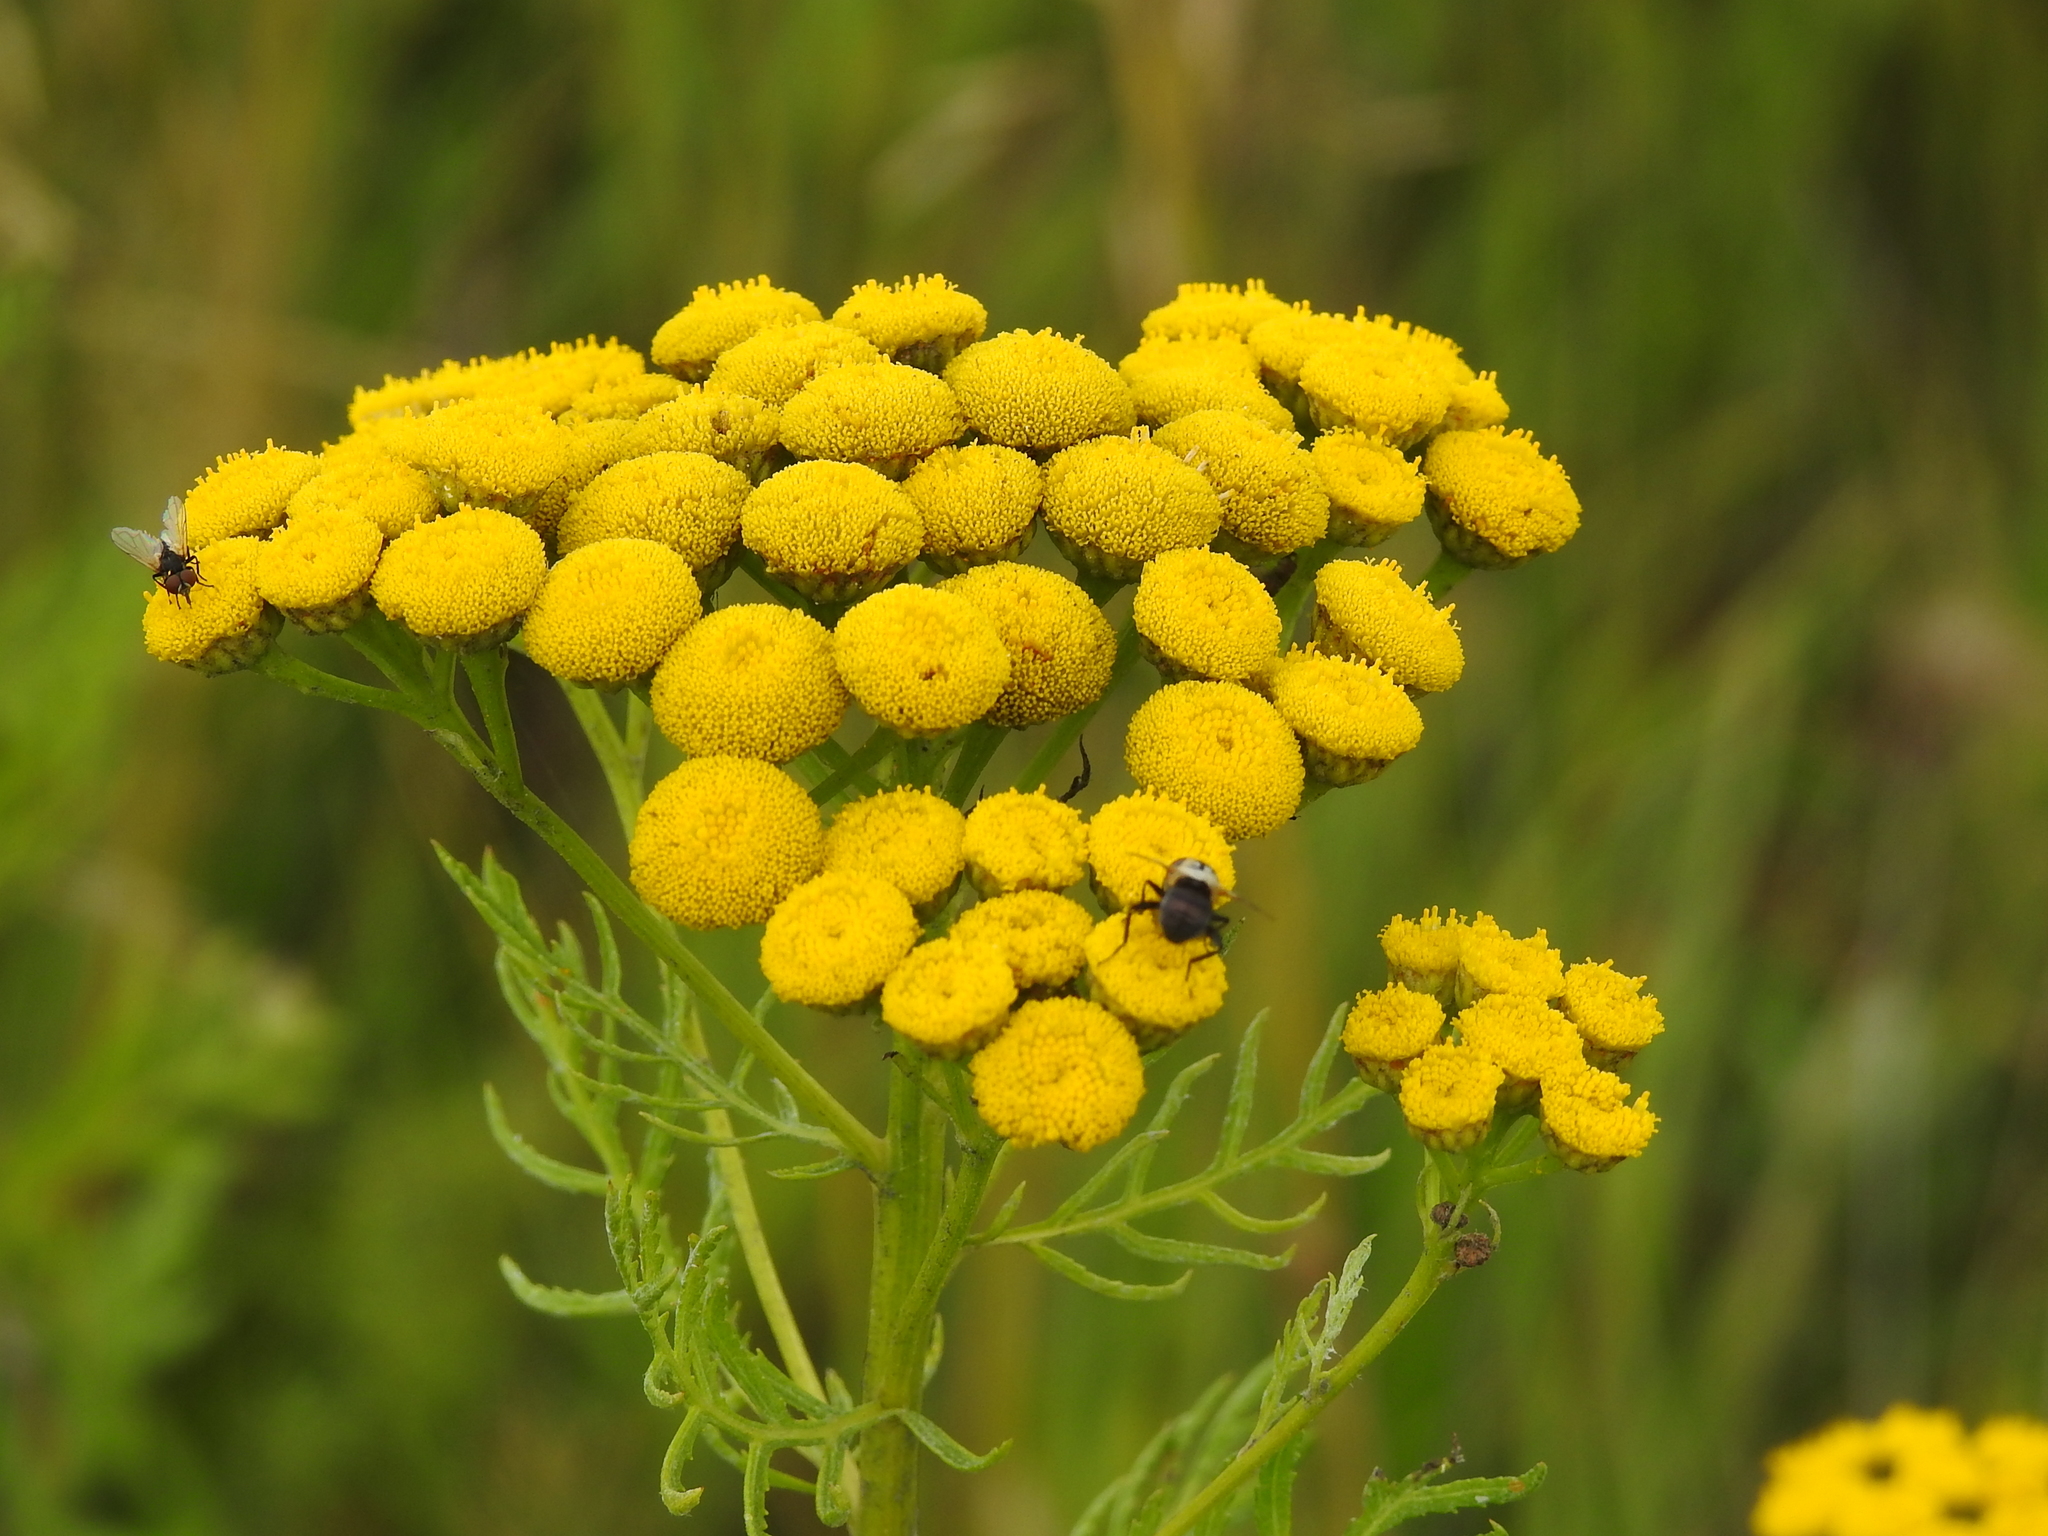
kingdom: Plantae
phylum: Tracheophyta
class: Magnoliopsida
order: Asterales
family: Asteraceae
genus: Tanacetum
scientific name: Tanacetum vulgare
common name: Common tansy
